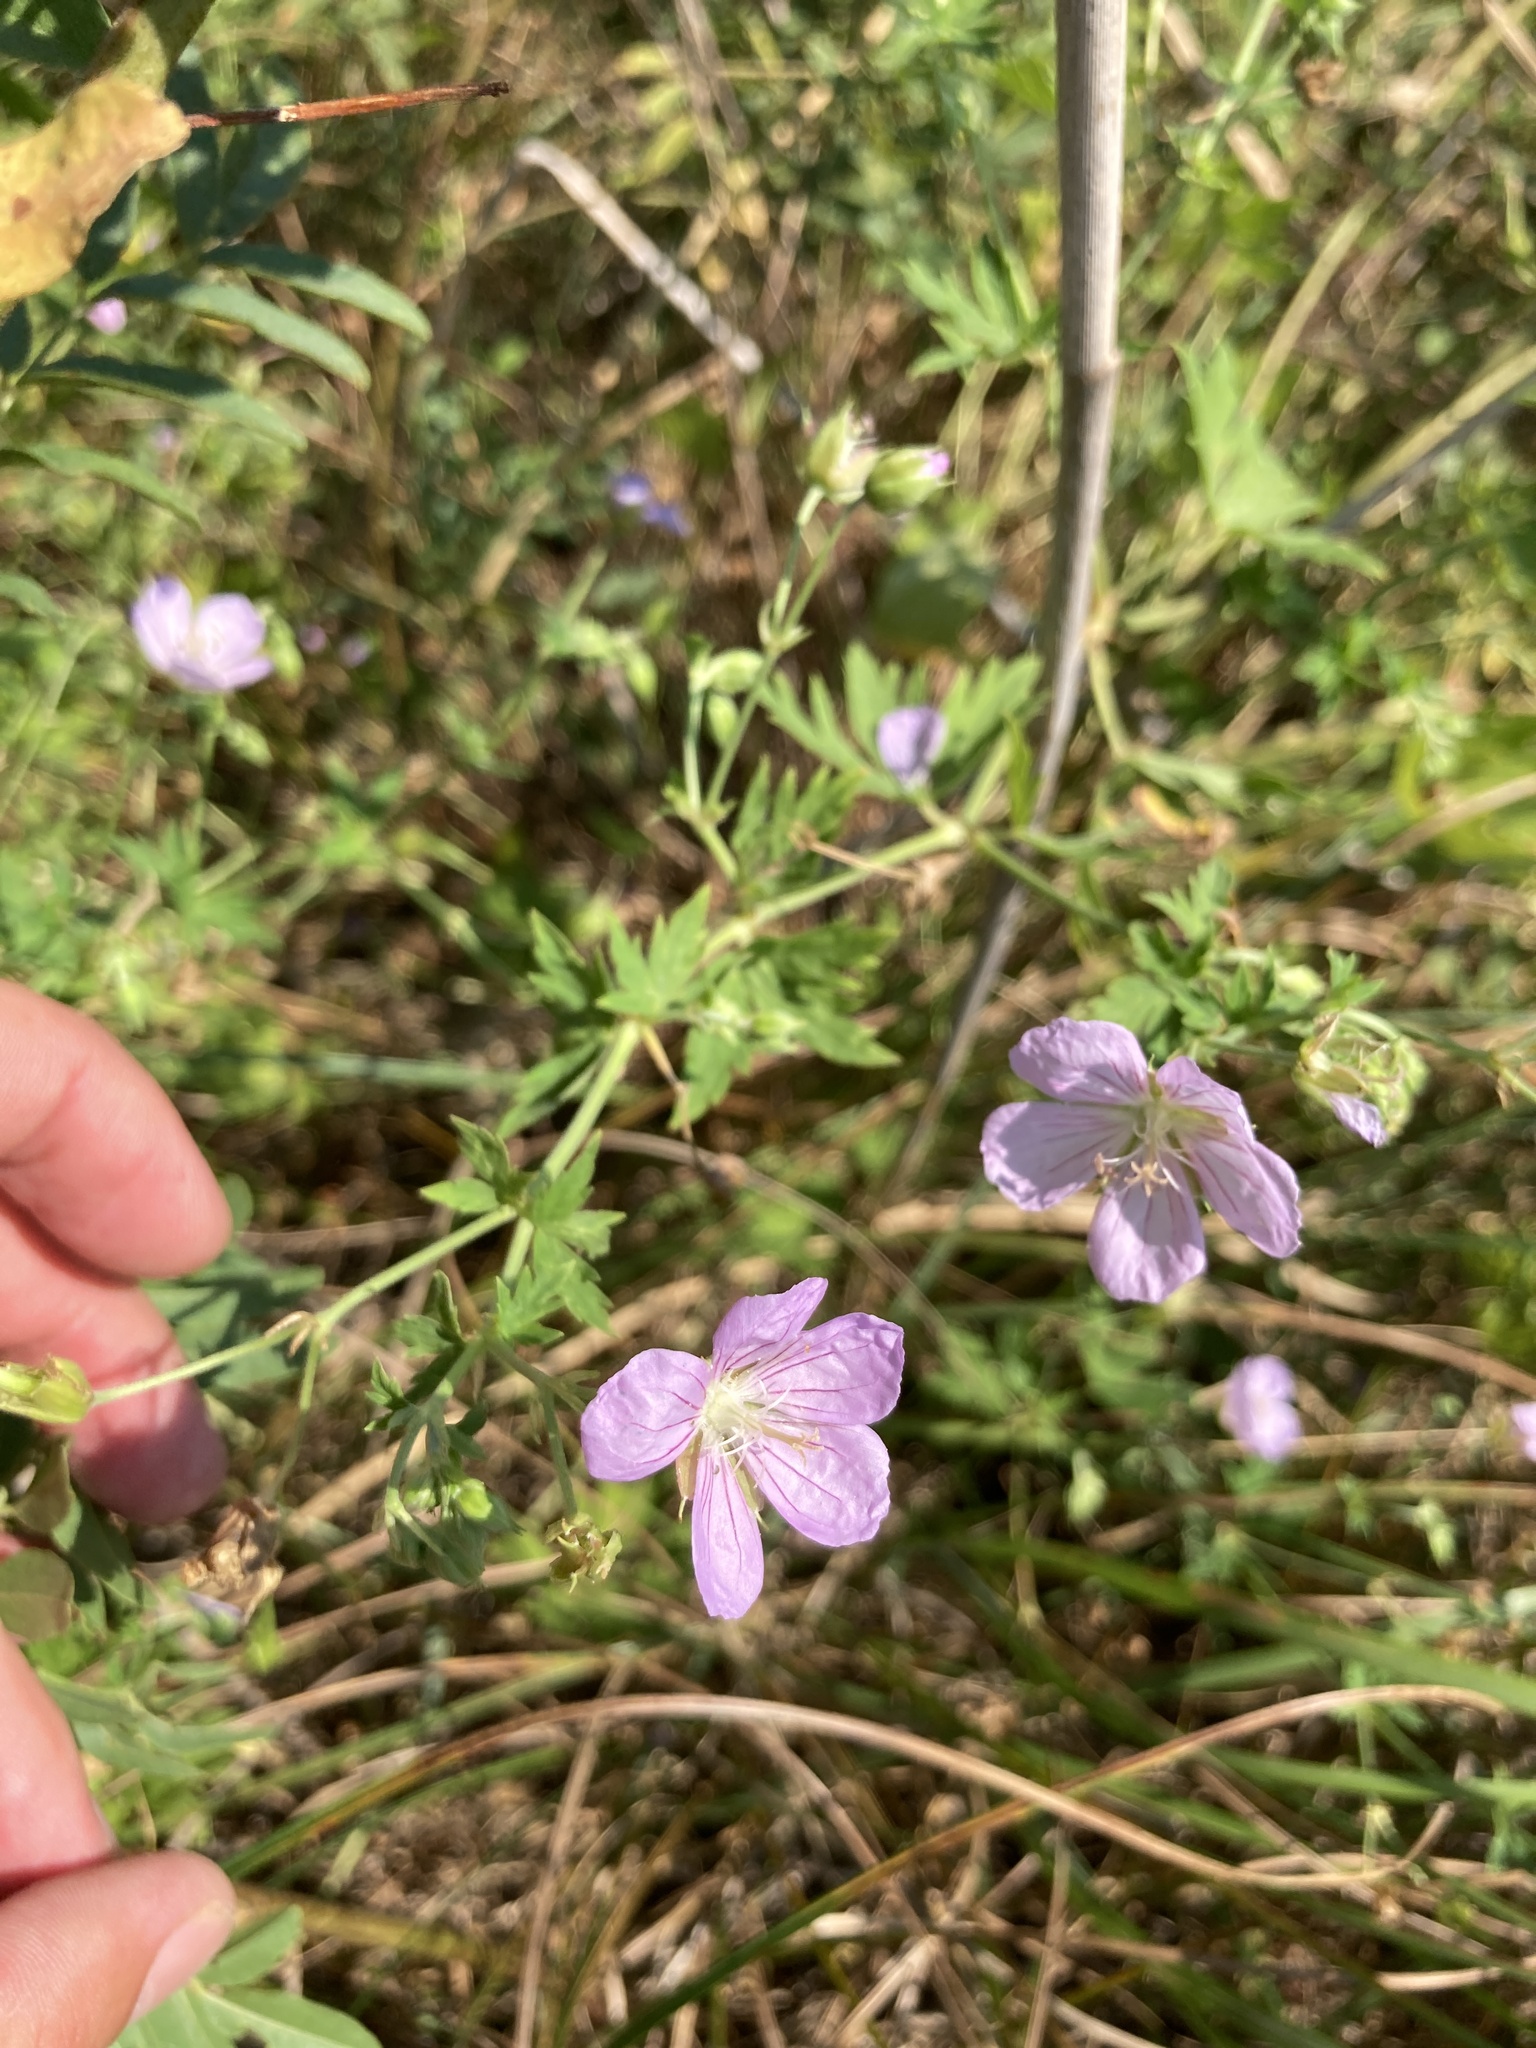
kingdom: Plantae
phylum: Tracheophyta
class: Magnoliopsida
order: Geraniales
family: Geraniaceae
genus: Geranium
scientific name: Geranium collinum
